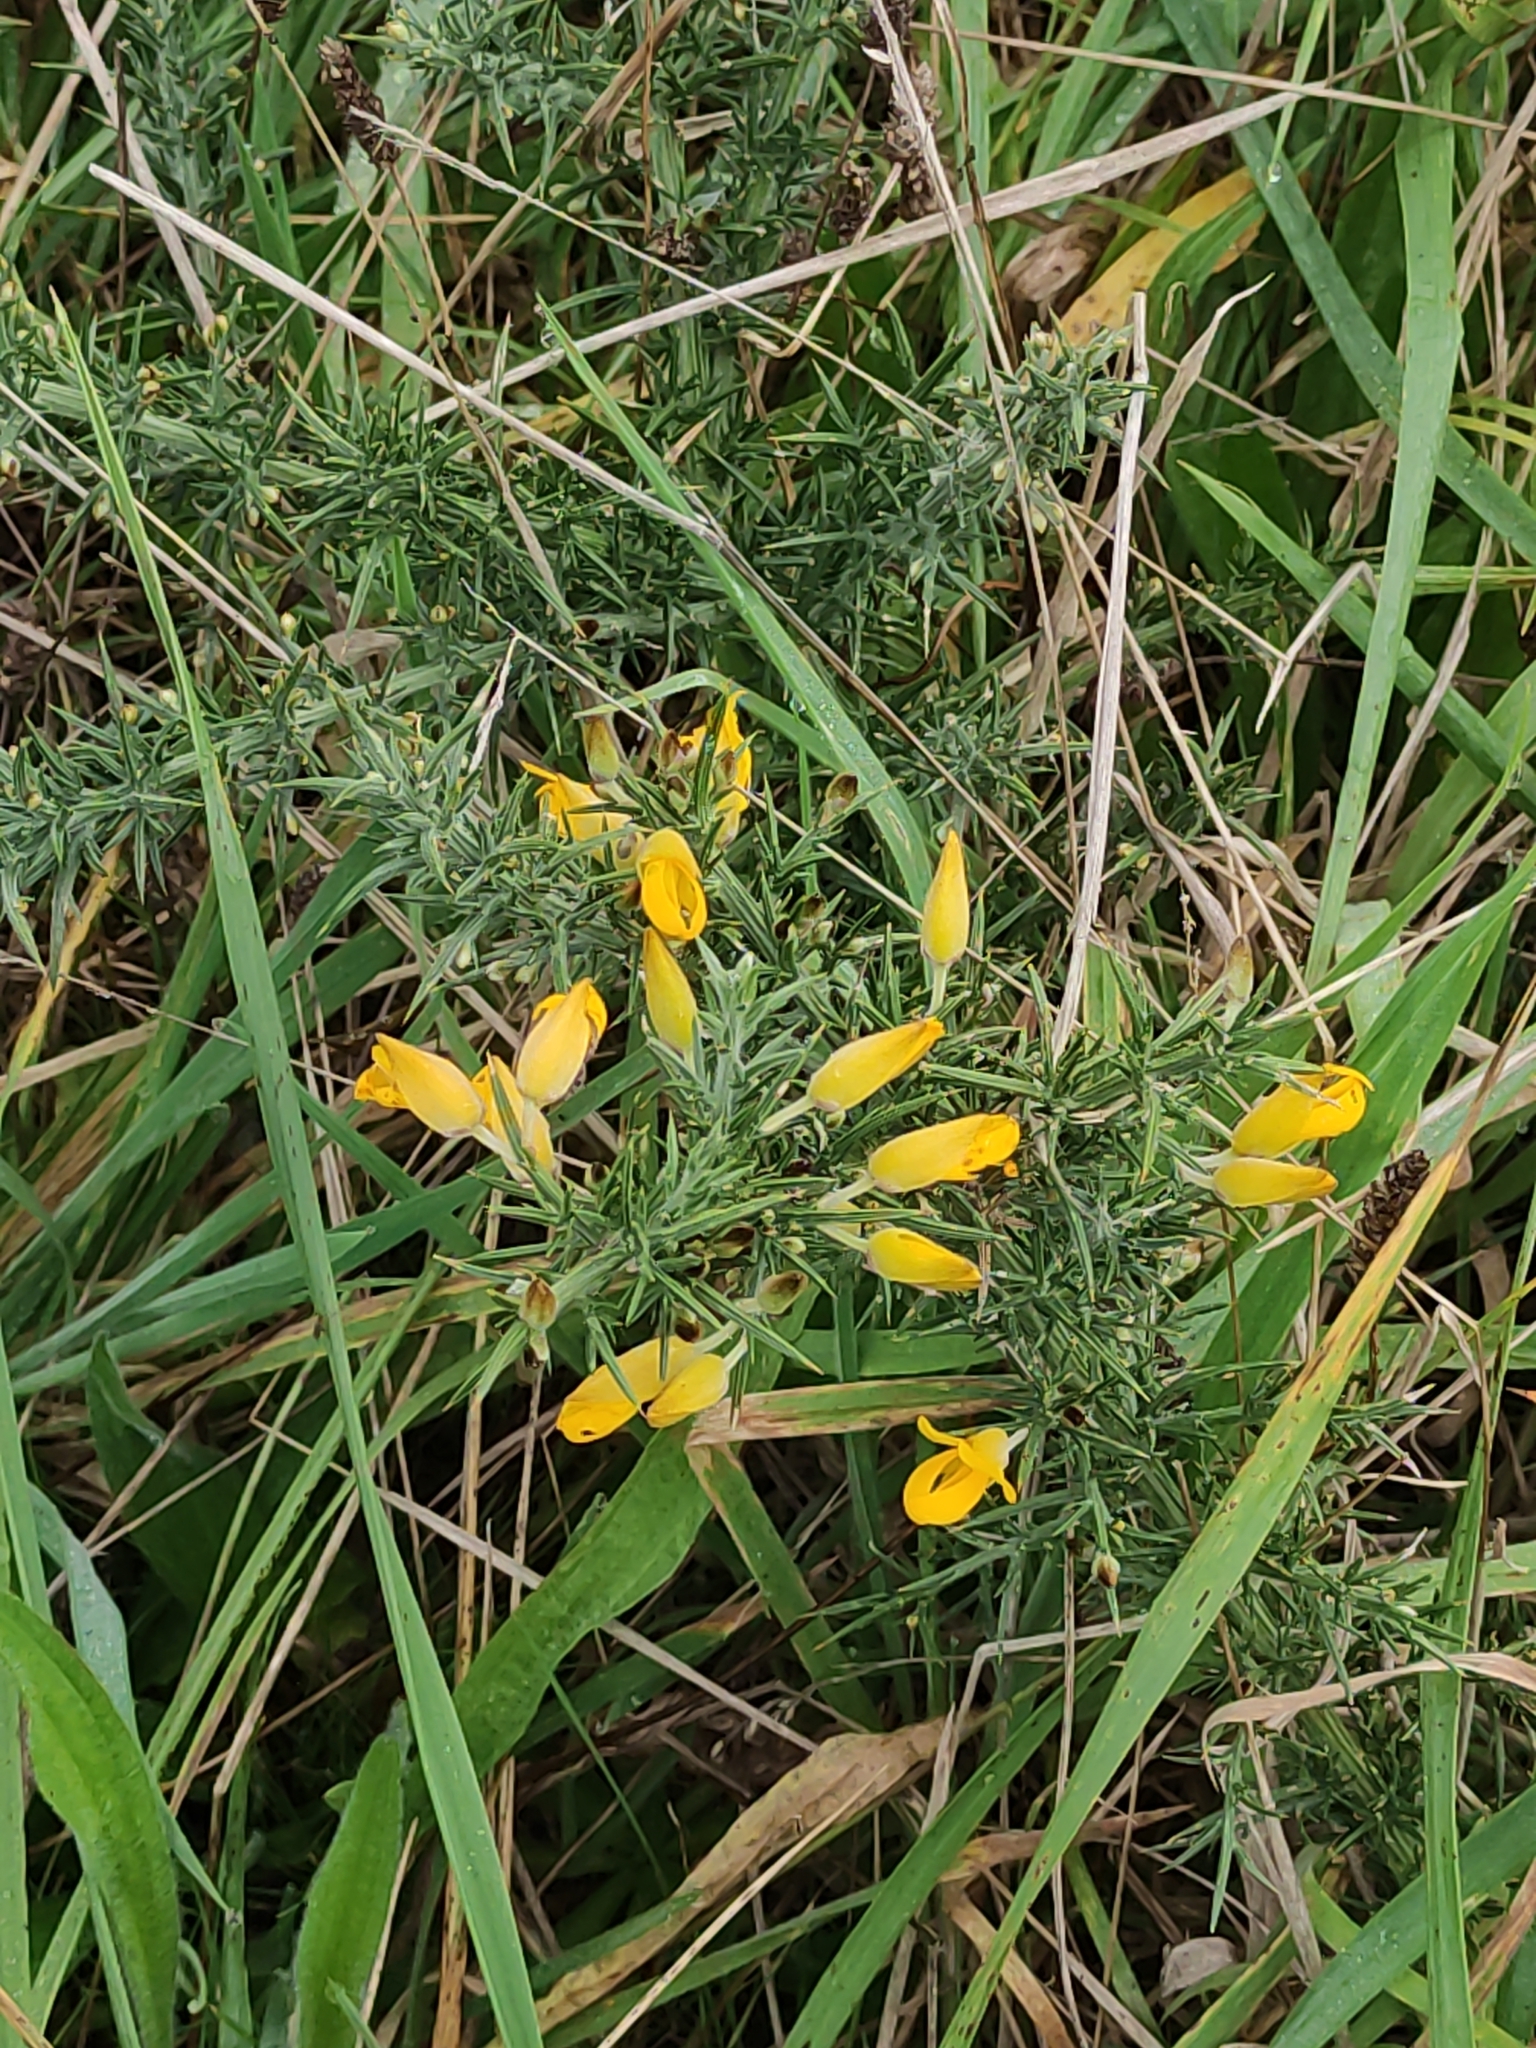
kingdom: Plantae
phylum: Tracheophyta
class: Magnoliopsida
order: Fabales
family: Fabaceae
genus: Ulex
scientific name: Ulex europaeus
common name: Common gorse
